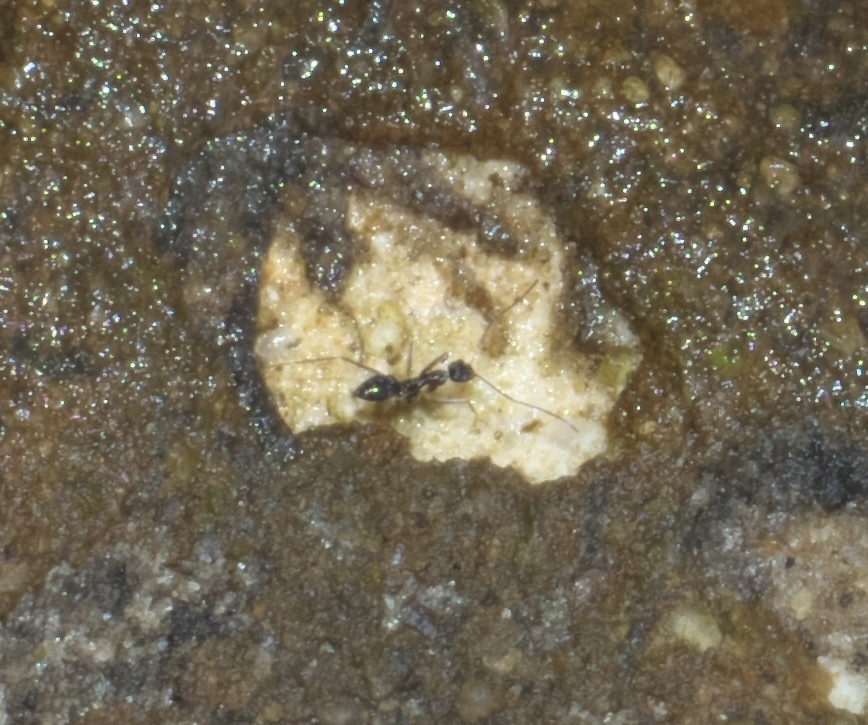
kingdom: Animalia
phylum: Arthropoda
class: Insecta
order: Hymenoptera
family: Formicidae
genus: Paratrechina
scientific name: Paratrechina longicornis
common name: Longhorned crazy ant
